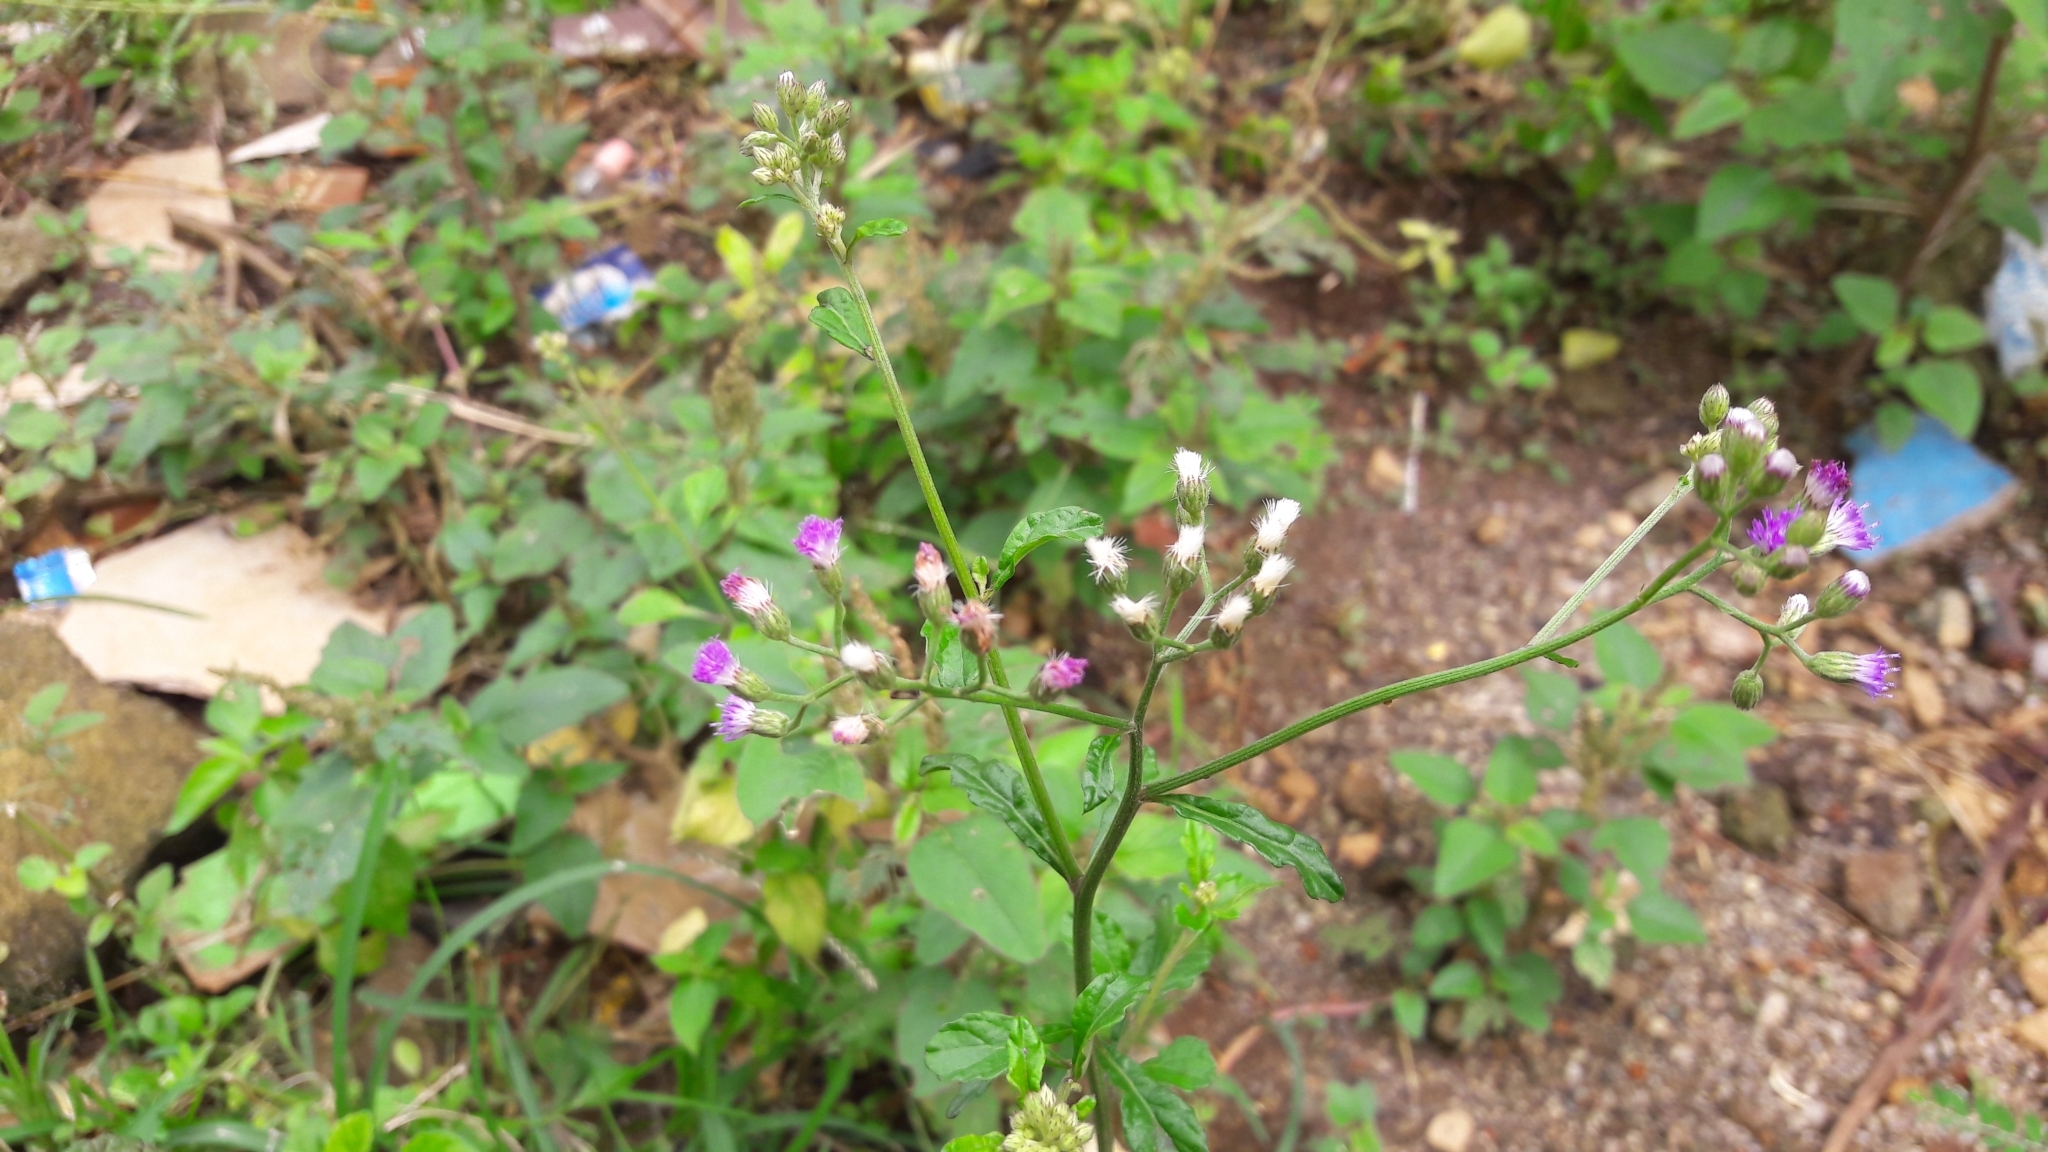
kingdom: Plantae
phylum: Tracheophyta
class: Magnoliopsida
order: Asterales
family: Asteraceae
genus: Cyanthillium
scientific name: Cyanthillium cinereum
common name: Little ironweed
